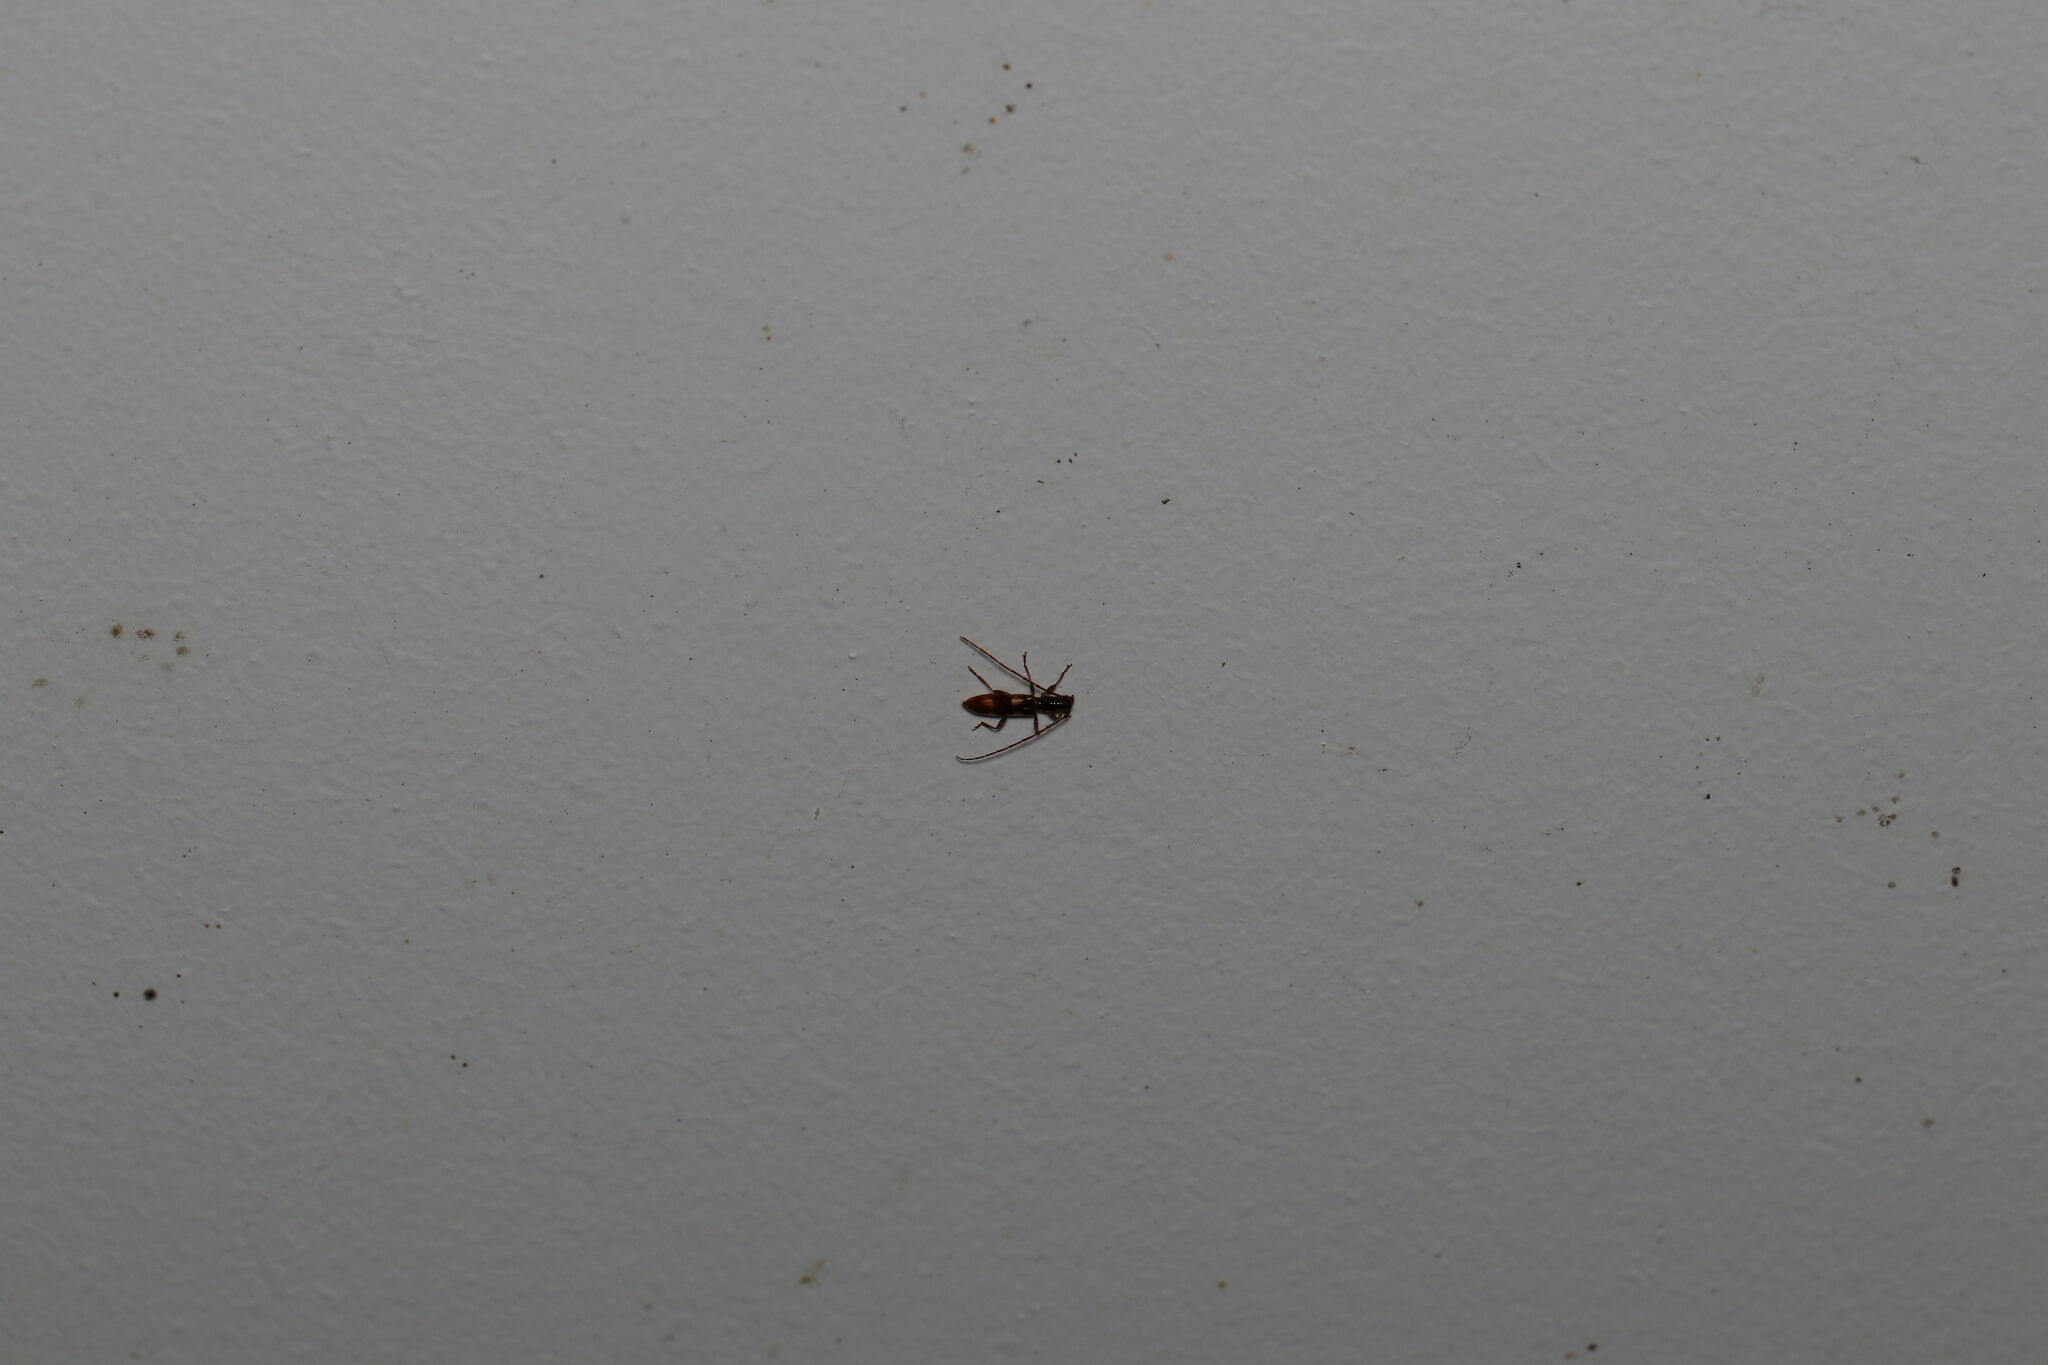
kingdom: Animalia
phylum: Arthropoda
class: Insecta
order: Coleoptera
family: Cerambycidae
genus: Heterachthes
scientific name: Heterachthes quadrimaculatus
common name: Four-spotted hickory borer
